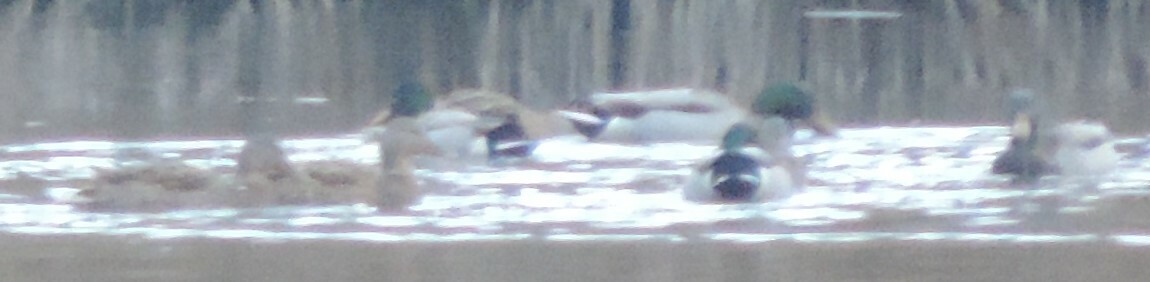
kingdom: Animalia
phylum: Chordata
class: Aves
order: Anseriformes
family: Anatidae
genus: Anas
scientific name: Anas platyrhynchos
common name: Mallard
